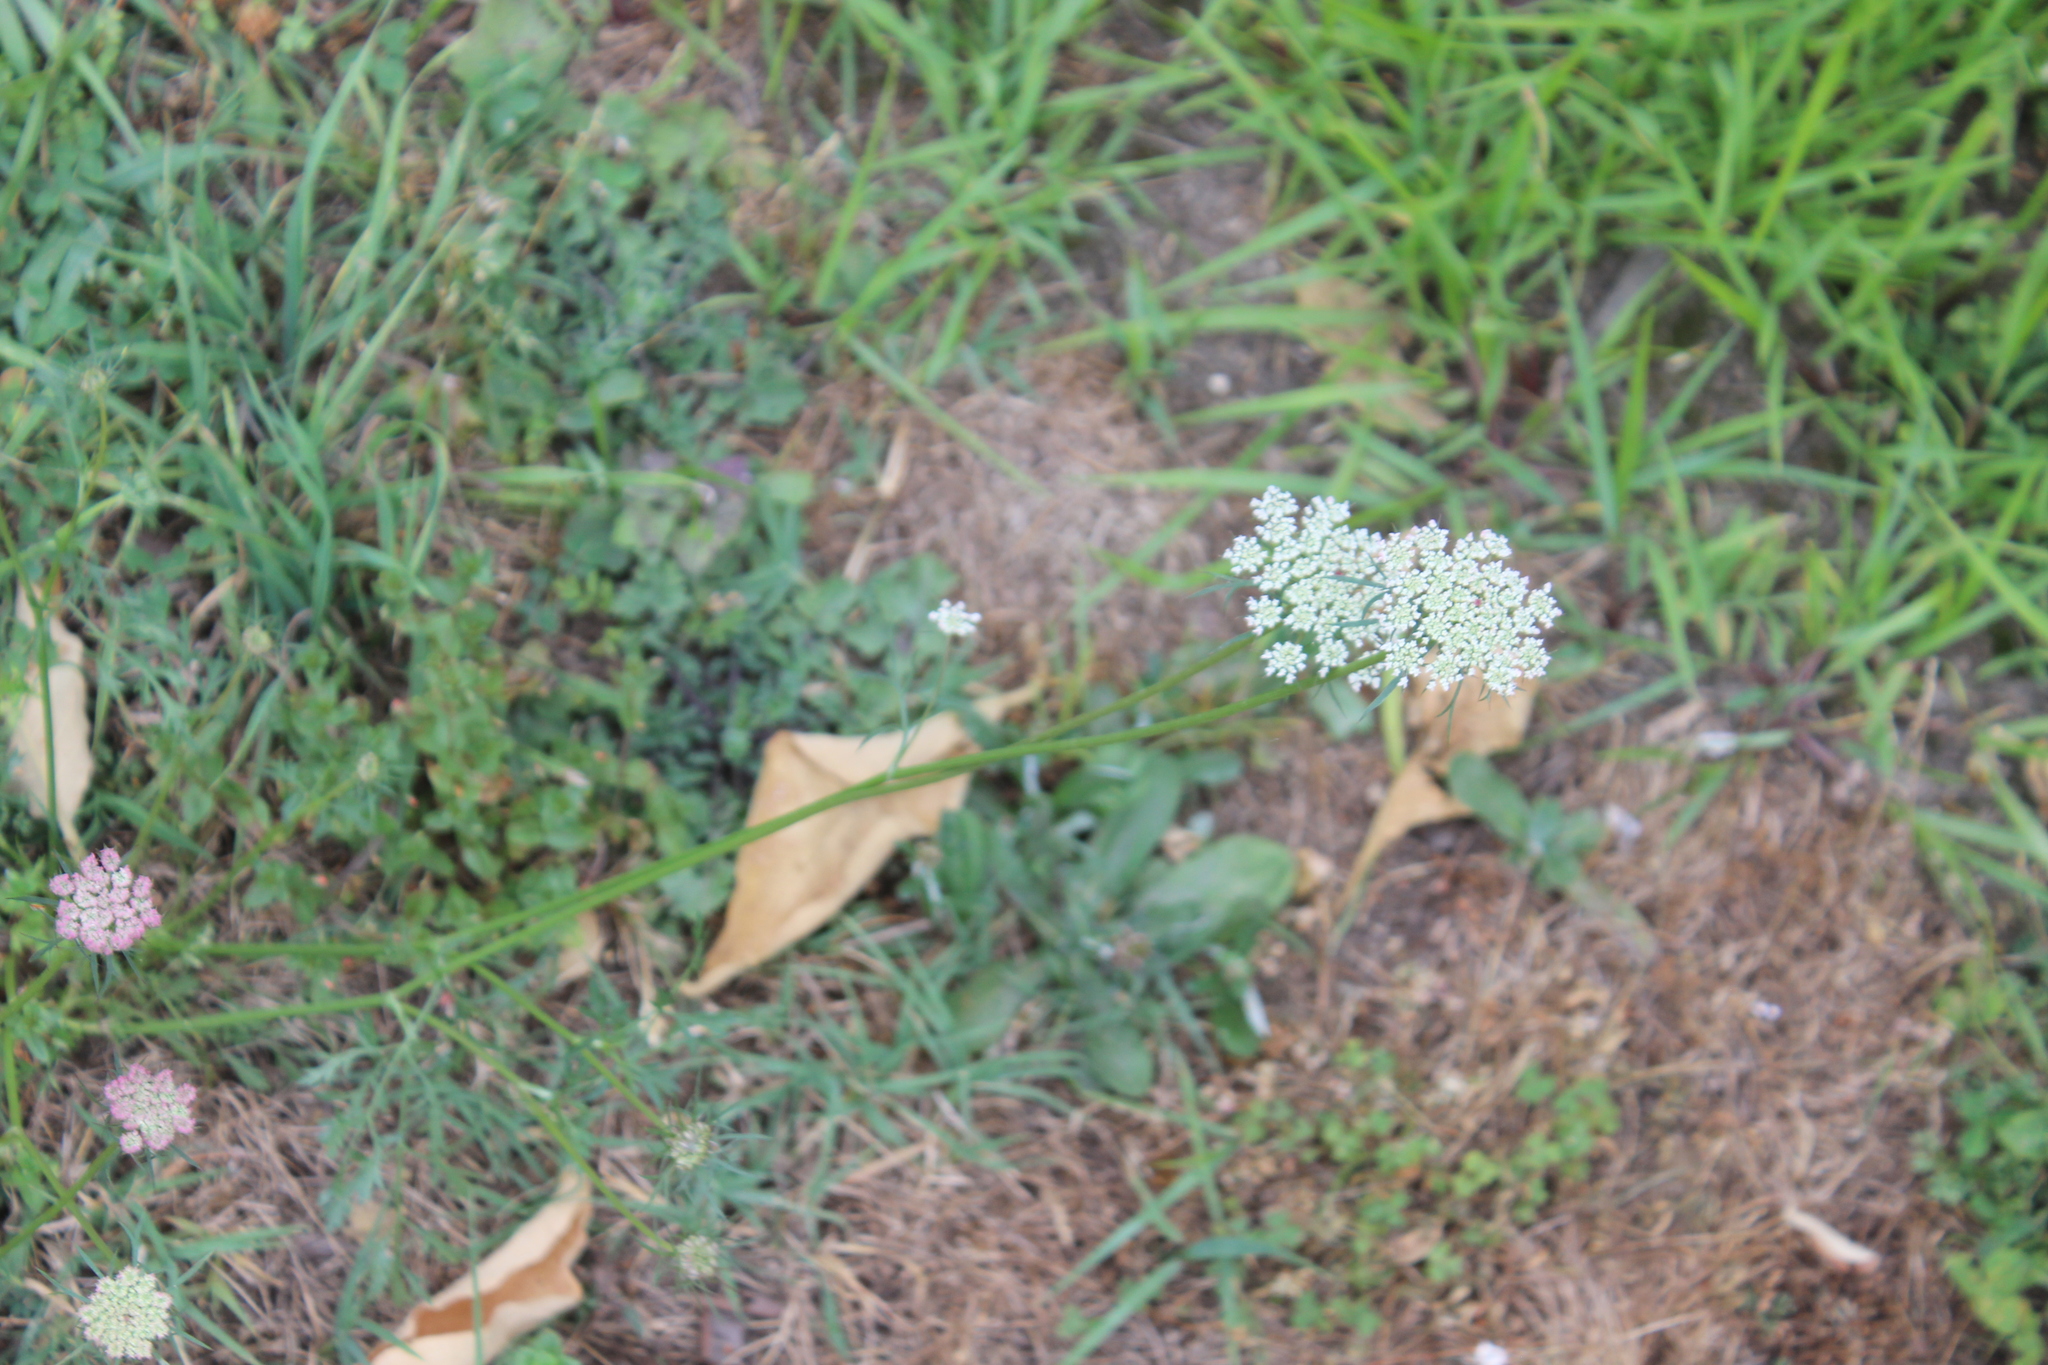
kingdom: Plantae
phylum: Tracheophyta
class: Magnoliopsida
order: Apiales
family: Apiaceae
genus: Daucus
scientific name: Daucus carota
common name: Wild carrot
